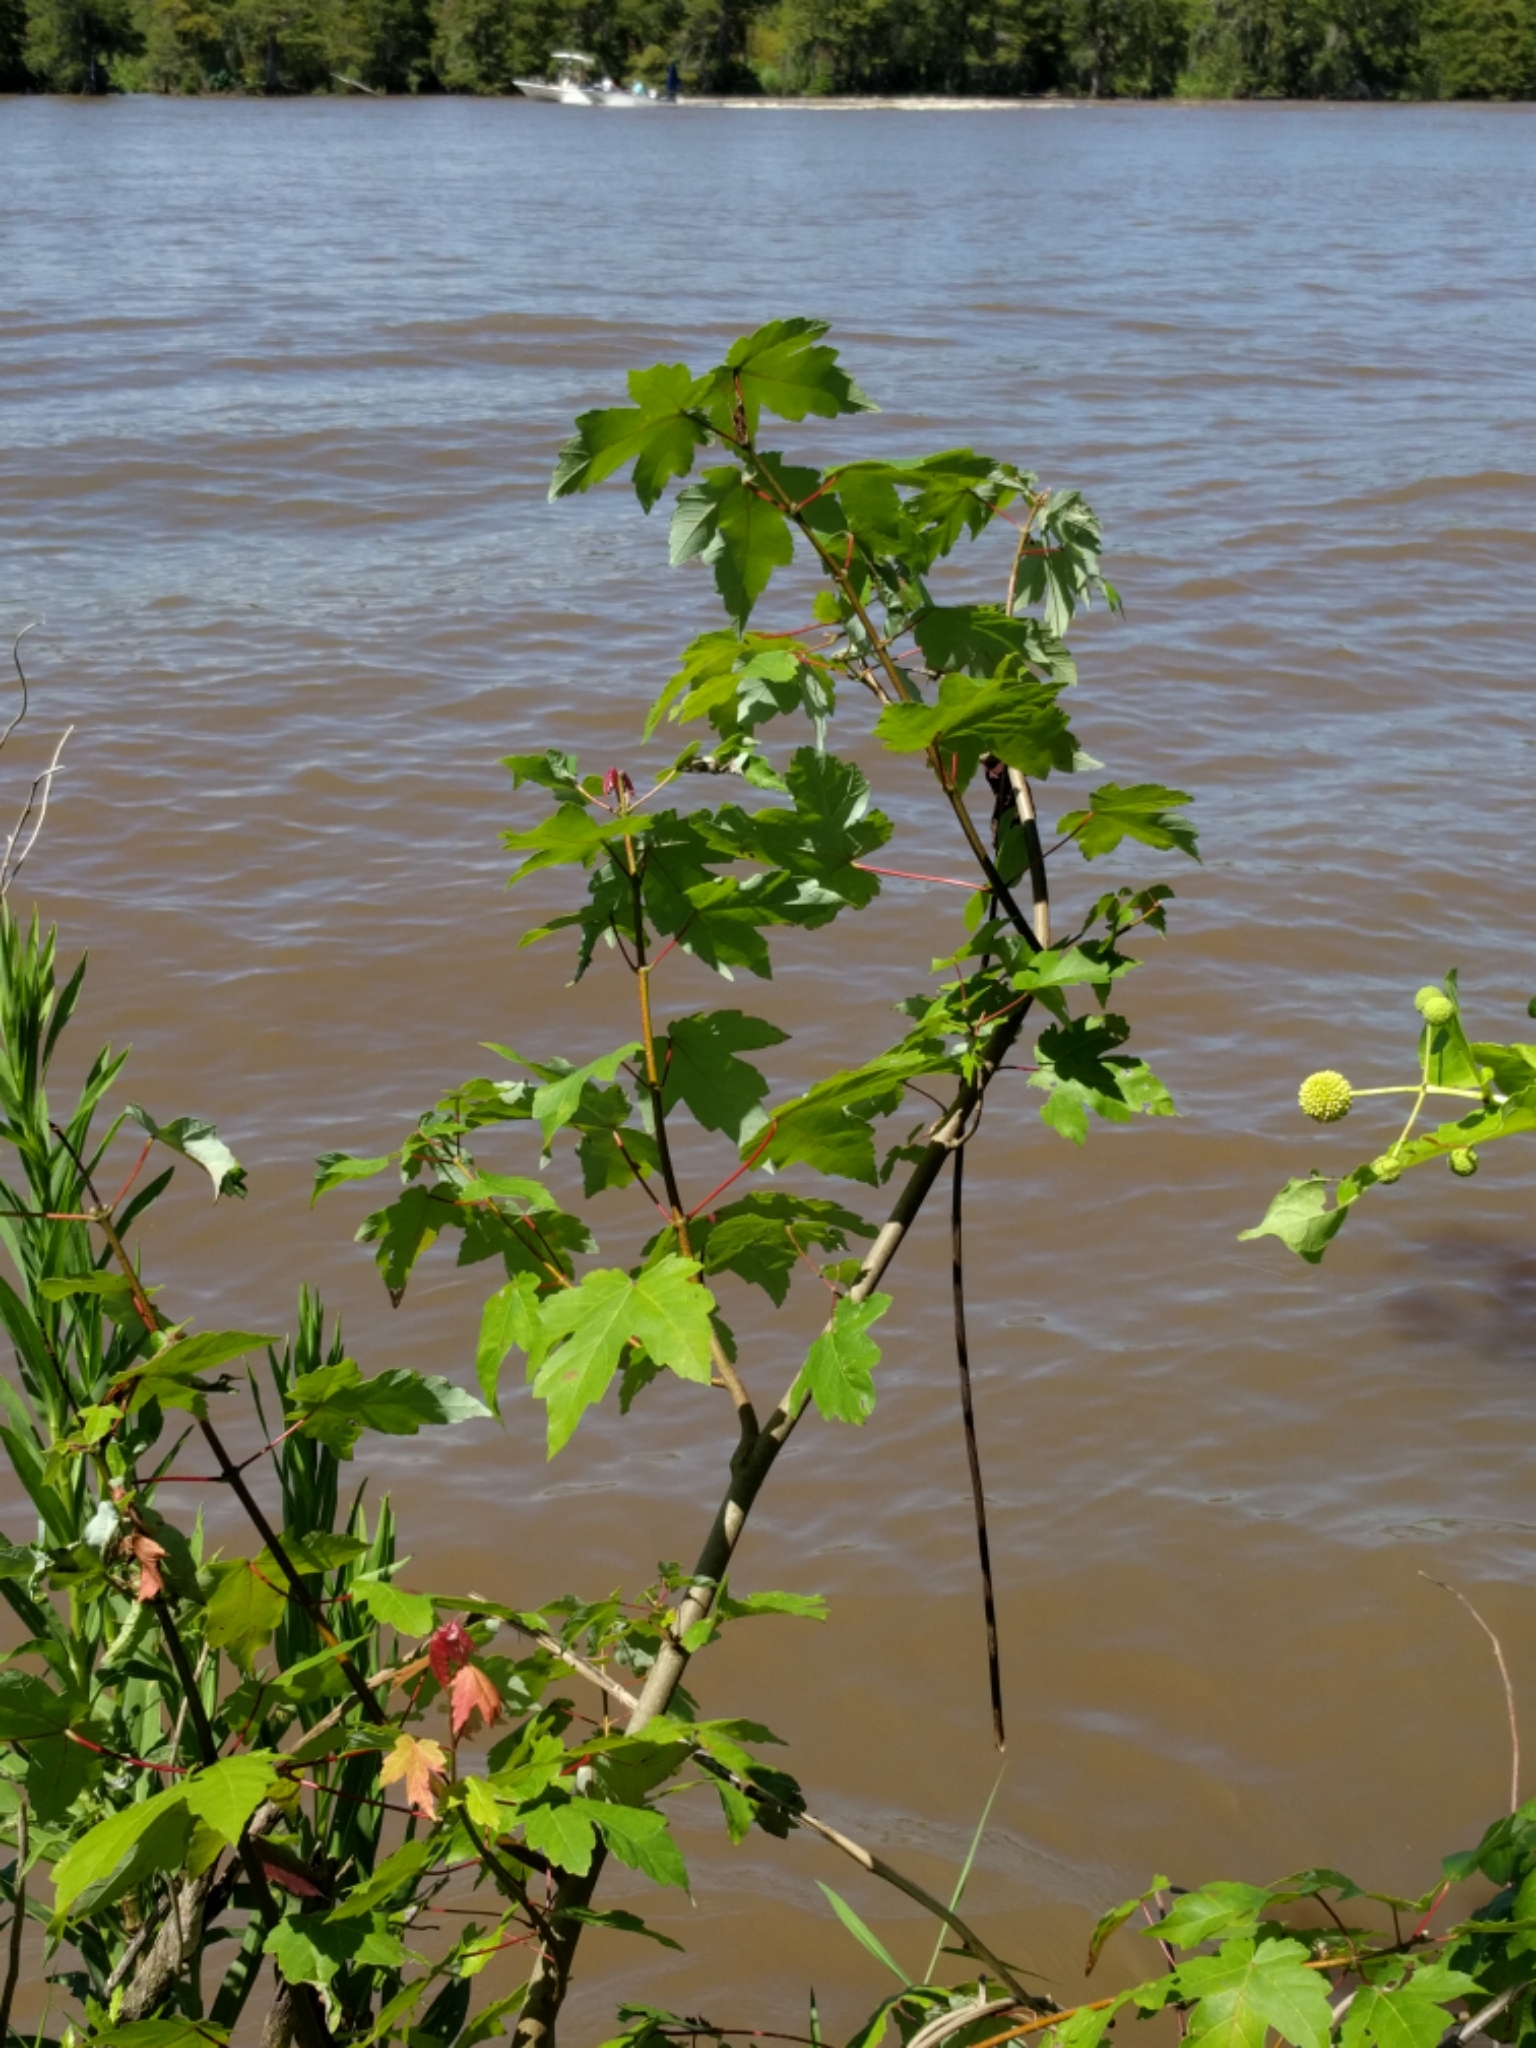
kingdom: Plantae
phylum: Tracheophyta
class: Magnoliopsida
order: Sapindales
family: Sapindaceae
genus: Acer
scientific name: Acer rubrum
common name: Red maple
